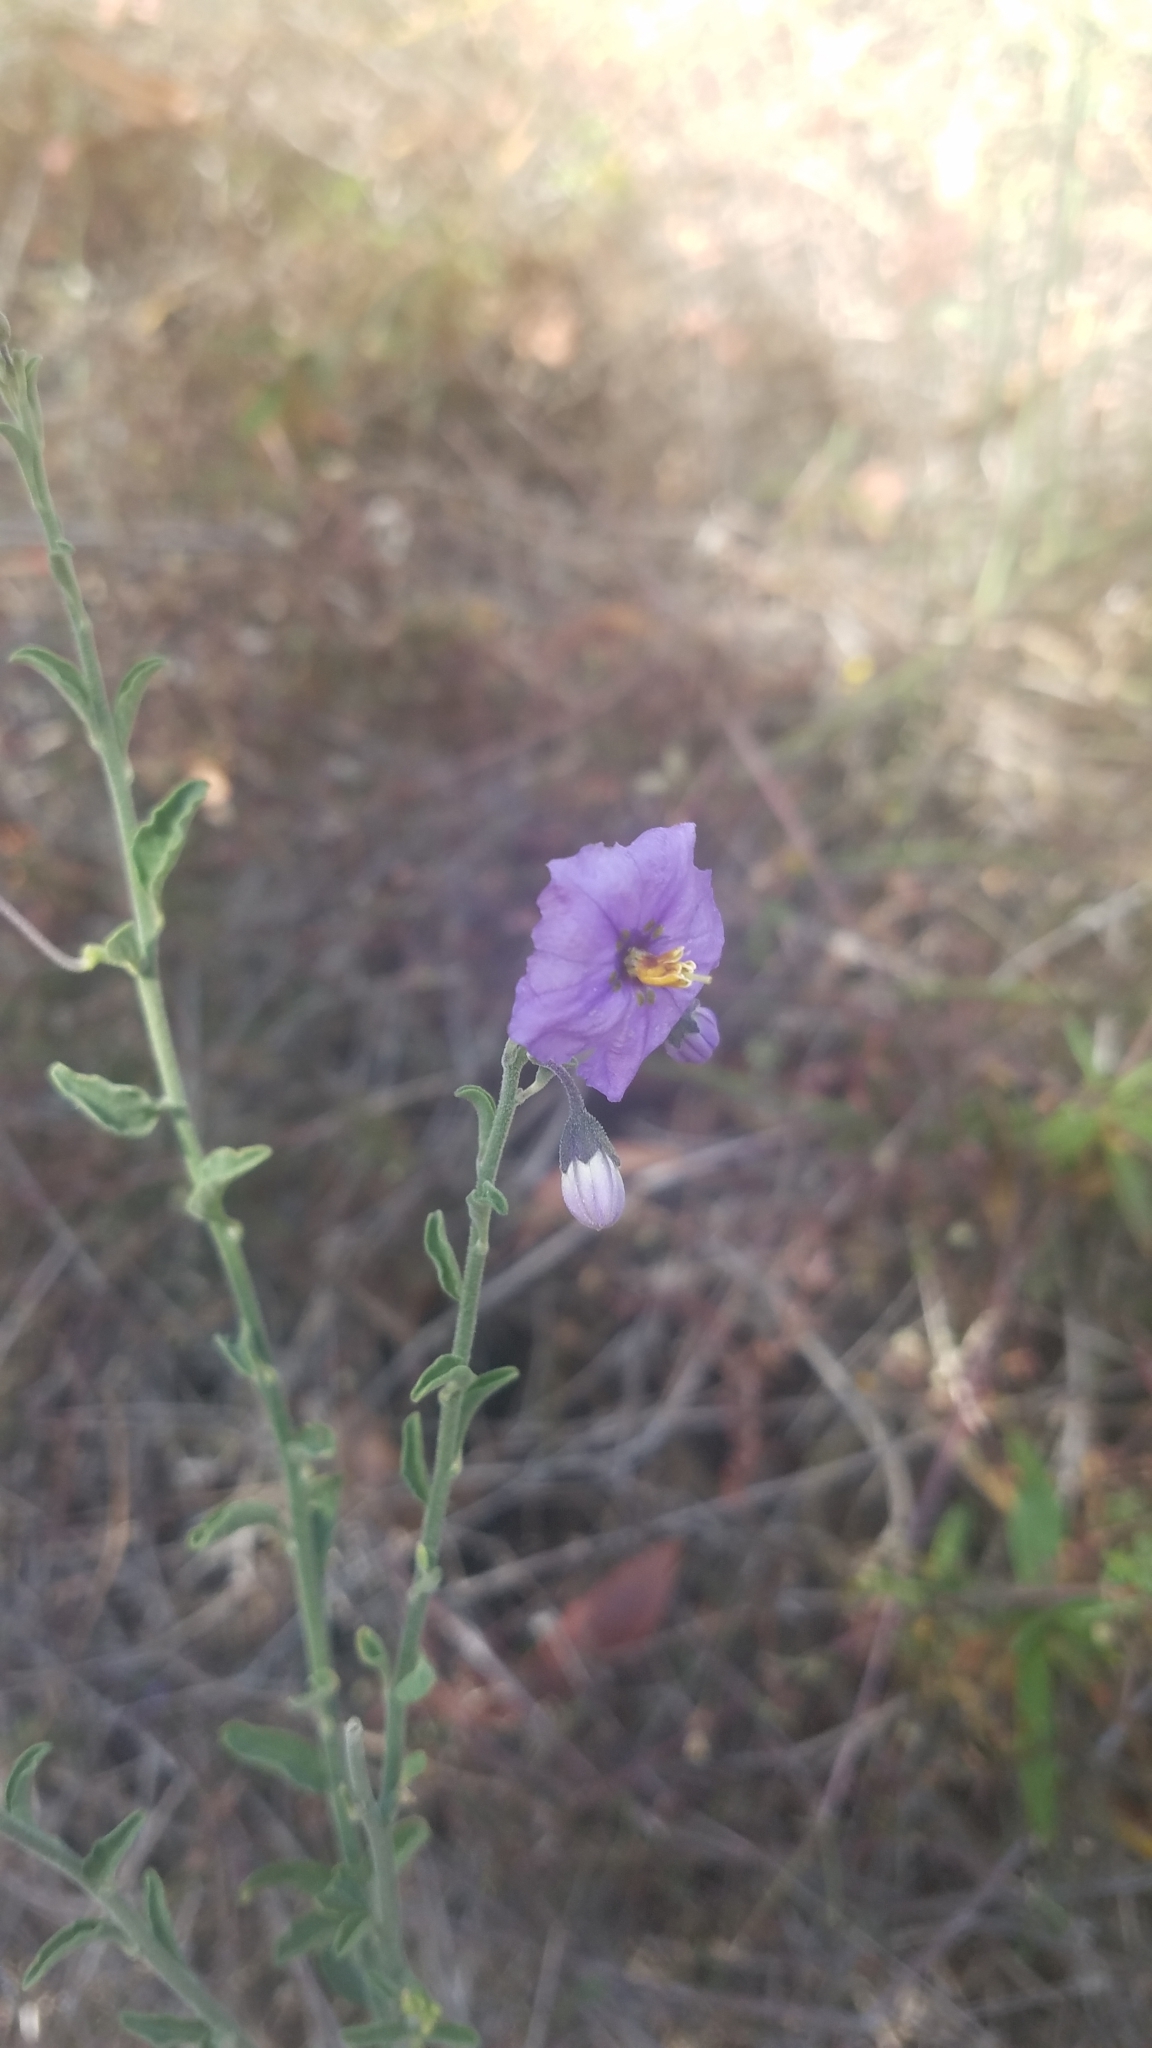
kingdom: Plantae
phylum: Tracheophyta
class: Magnoliopsida
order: Solanales
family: Solanaceae
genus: Solanum
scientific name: Solanum umbelliferum
